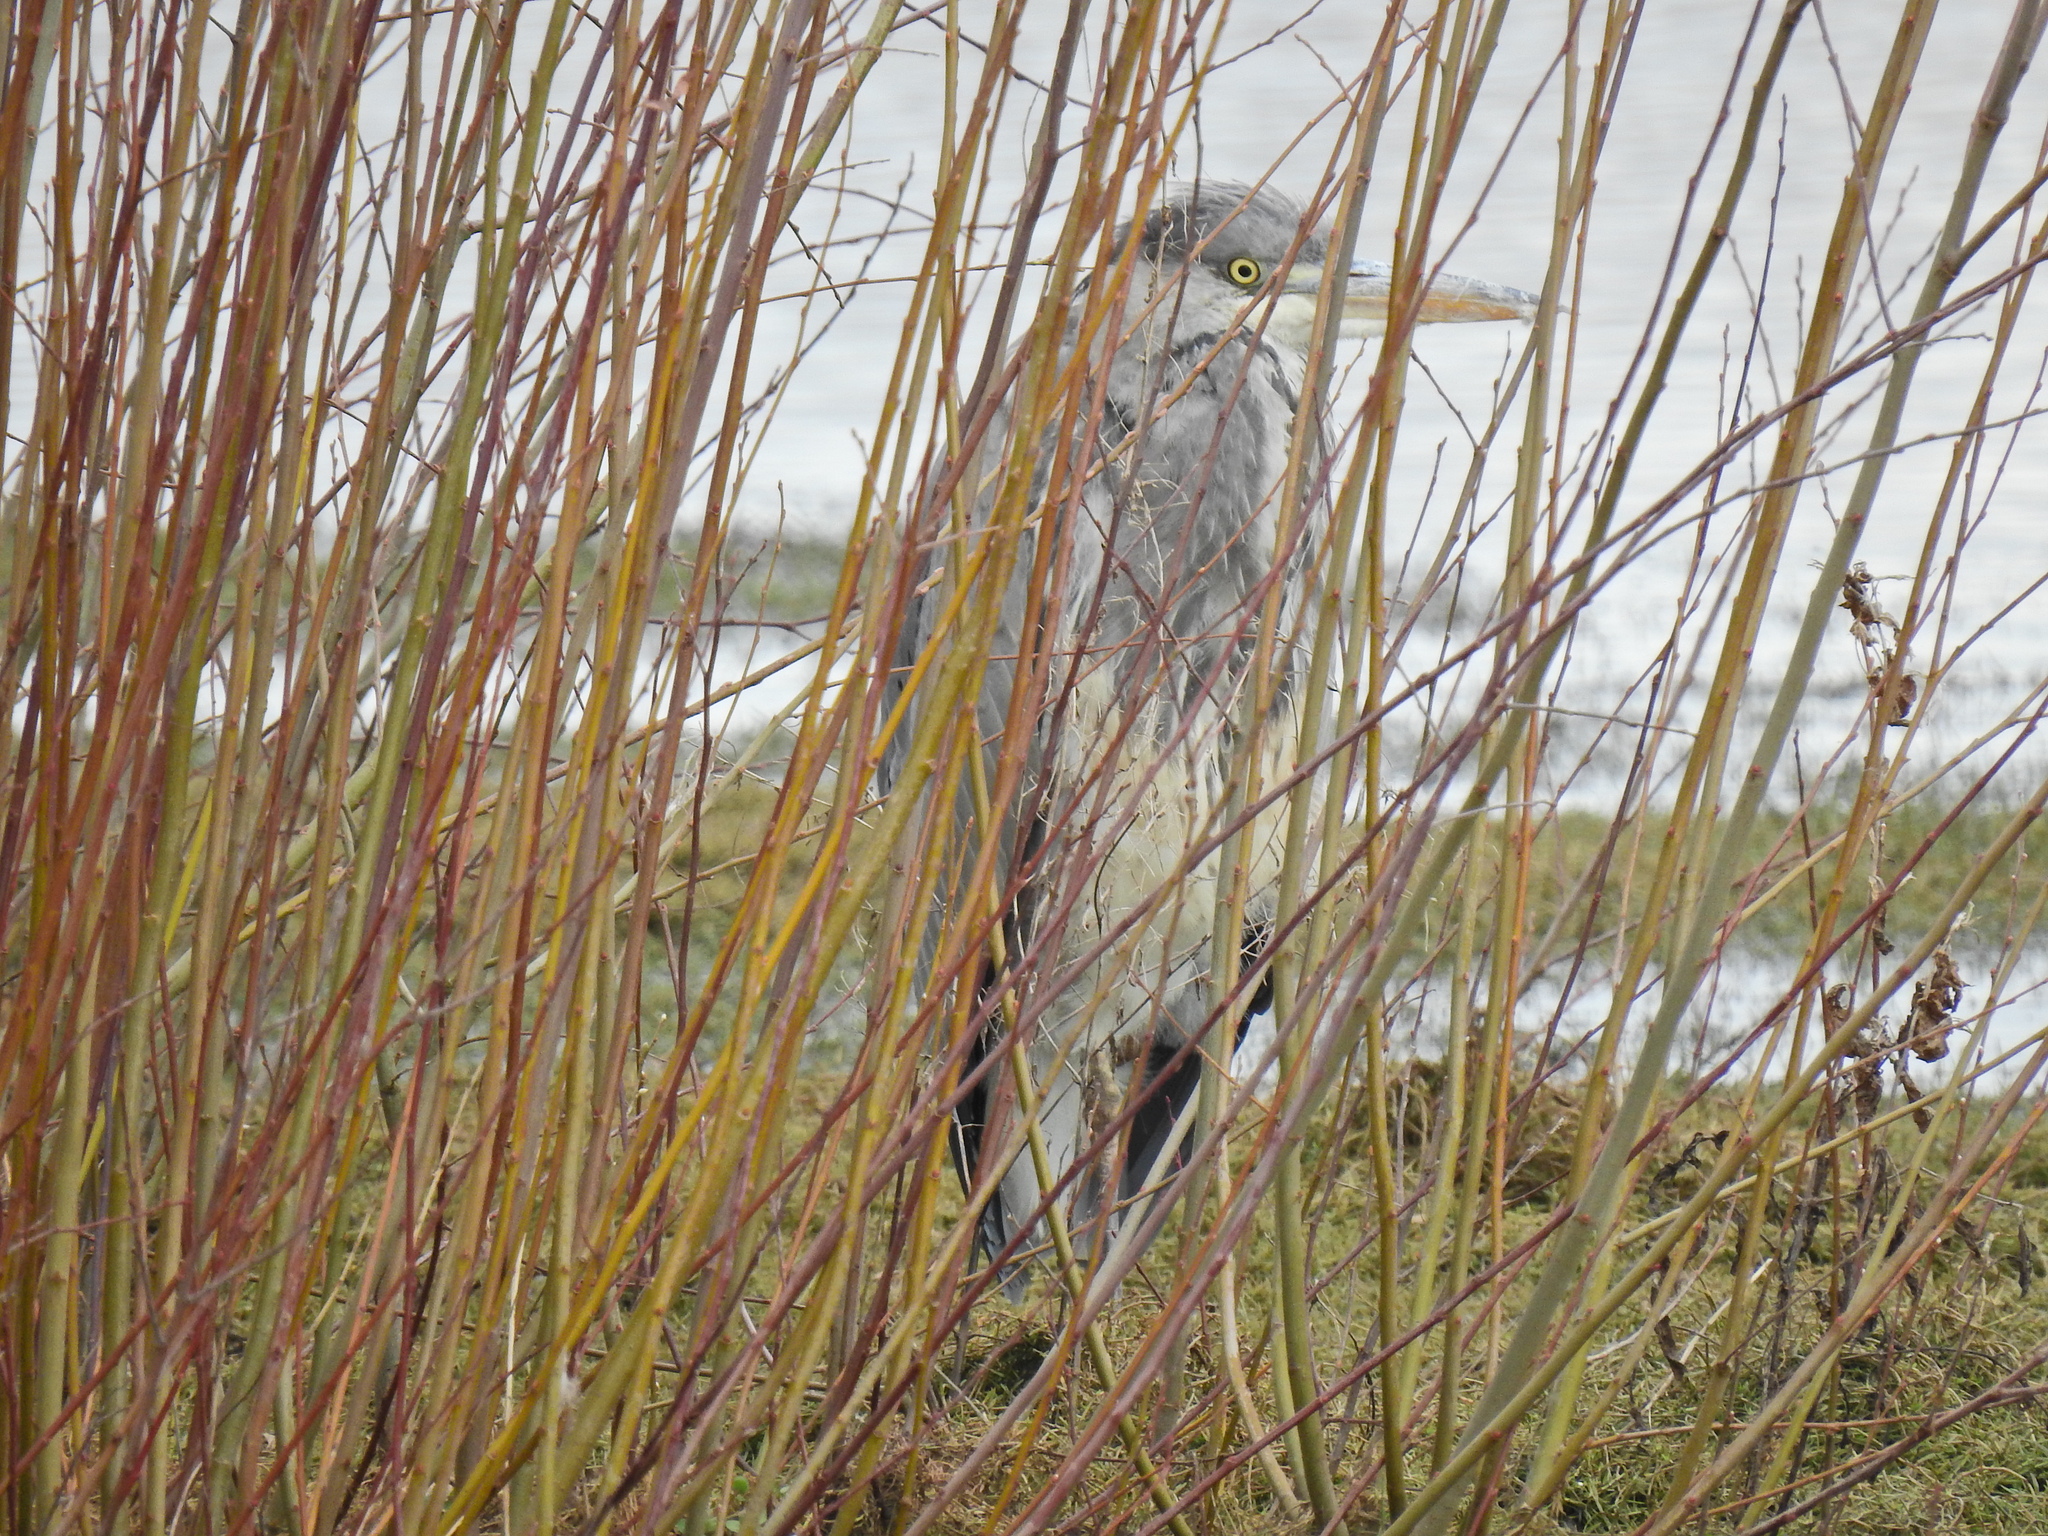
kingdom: Animalia
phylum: Chordata
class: Aves
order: Pelecaniformes
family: Ardeidae
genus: Ardea
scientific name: Ardea cinerea
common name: Grey heron
